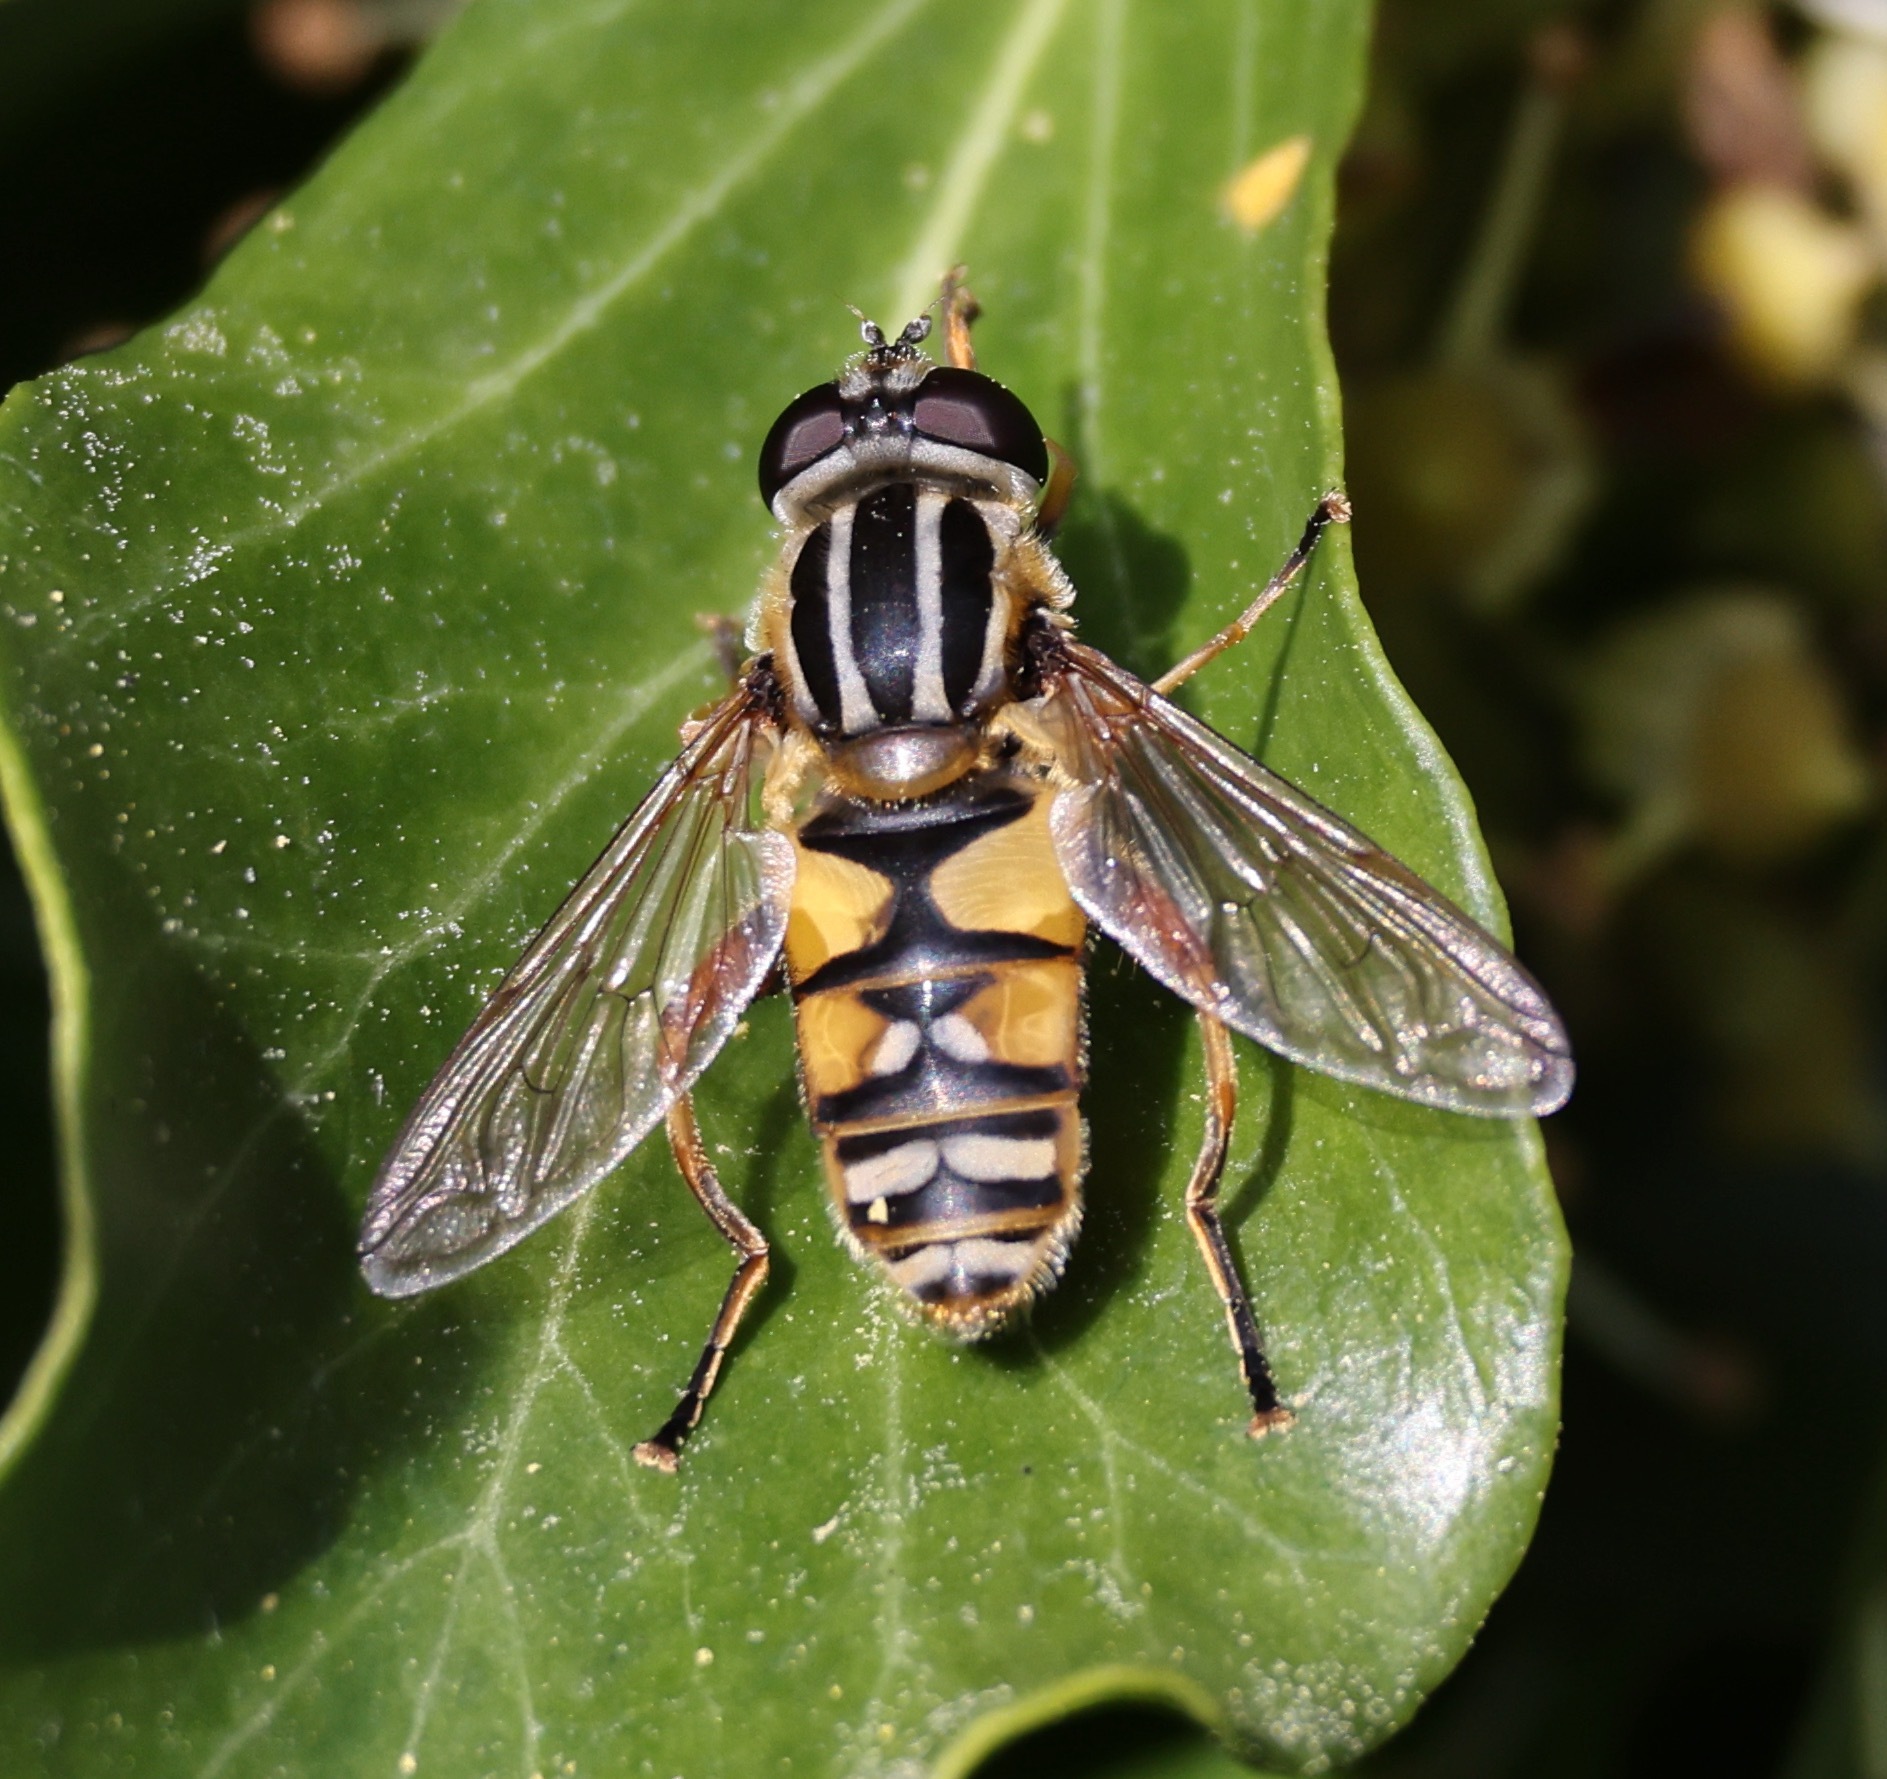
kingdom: Animalia
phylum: Arthropoda
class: Insecta
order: Diptera
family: Syrphidae
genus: Helophilus
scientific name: Helophilus pendulus
